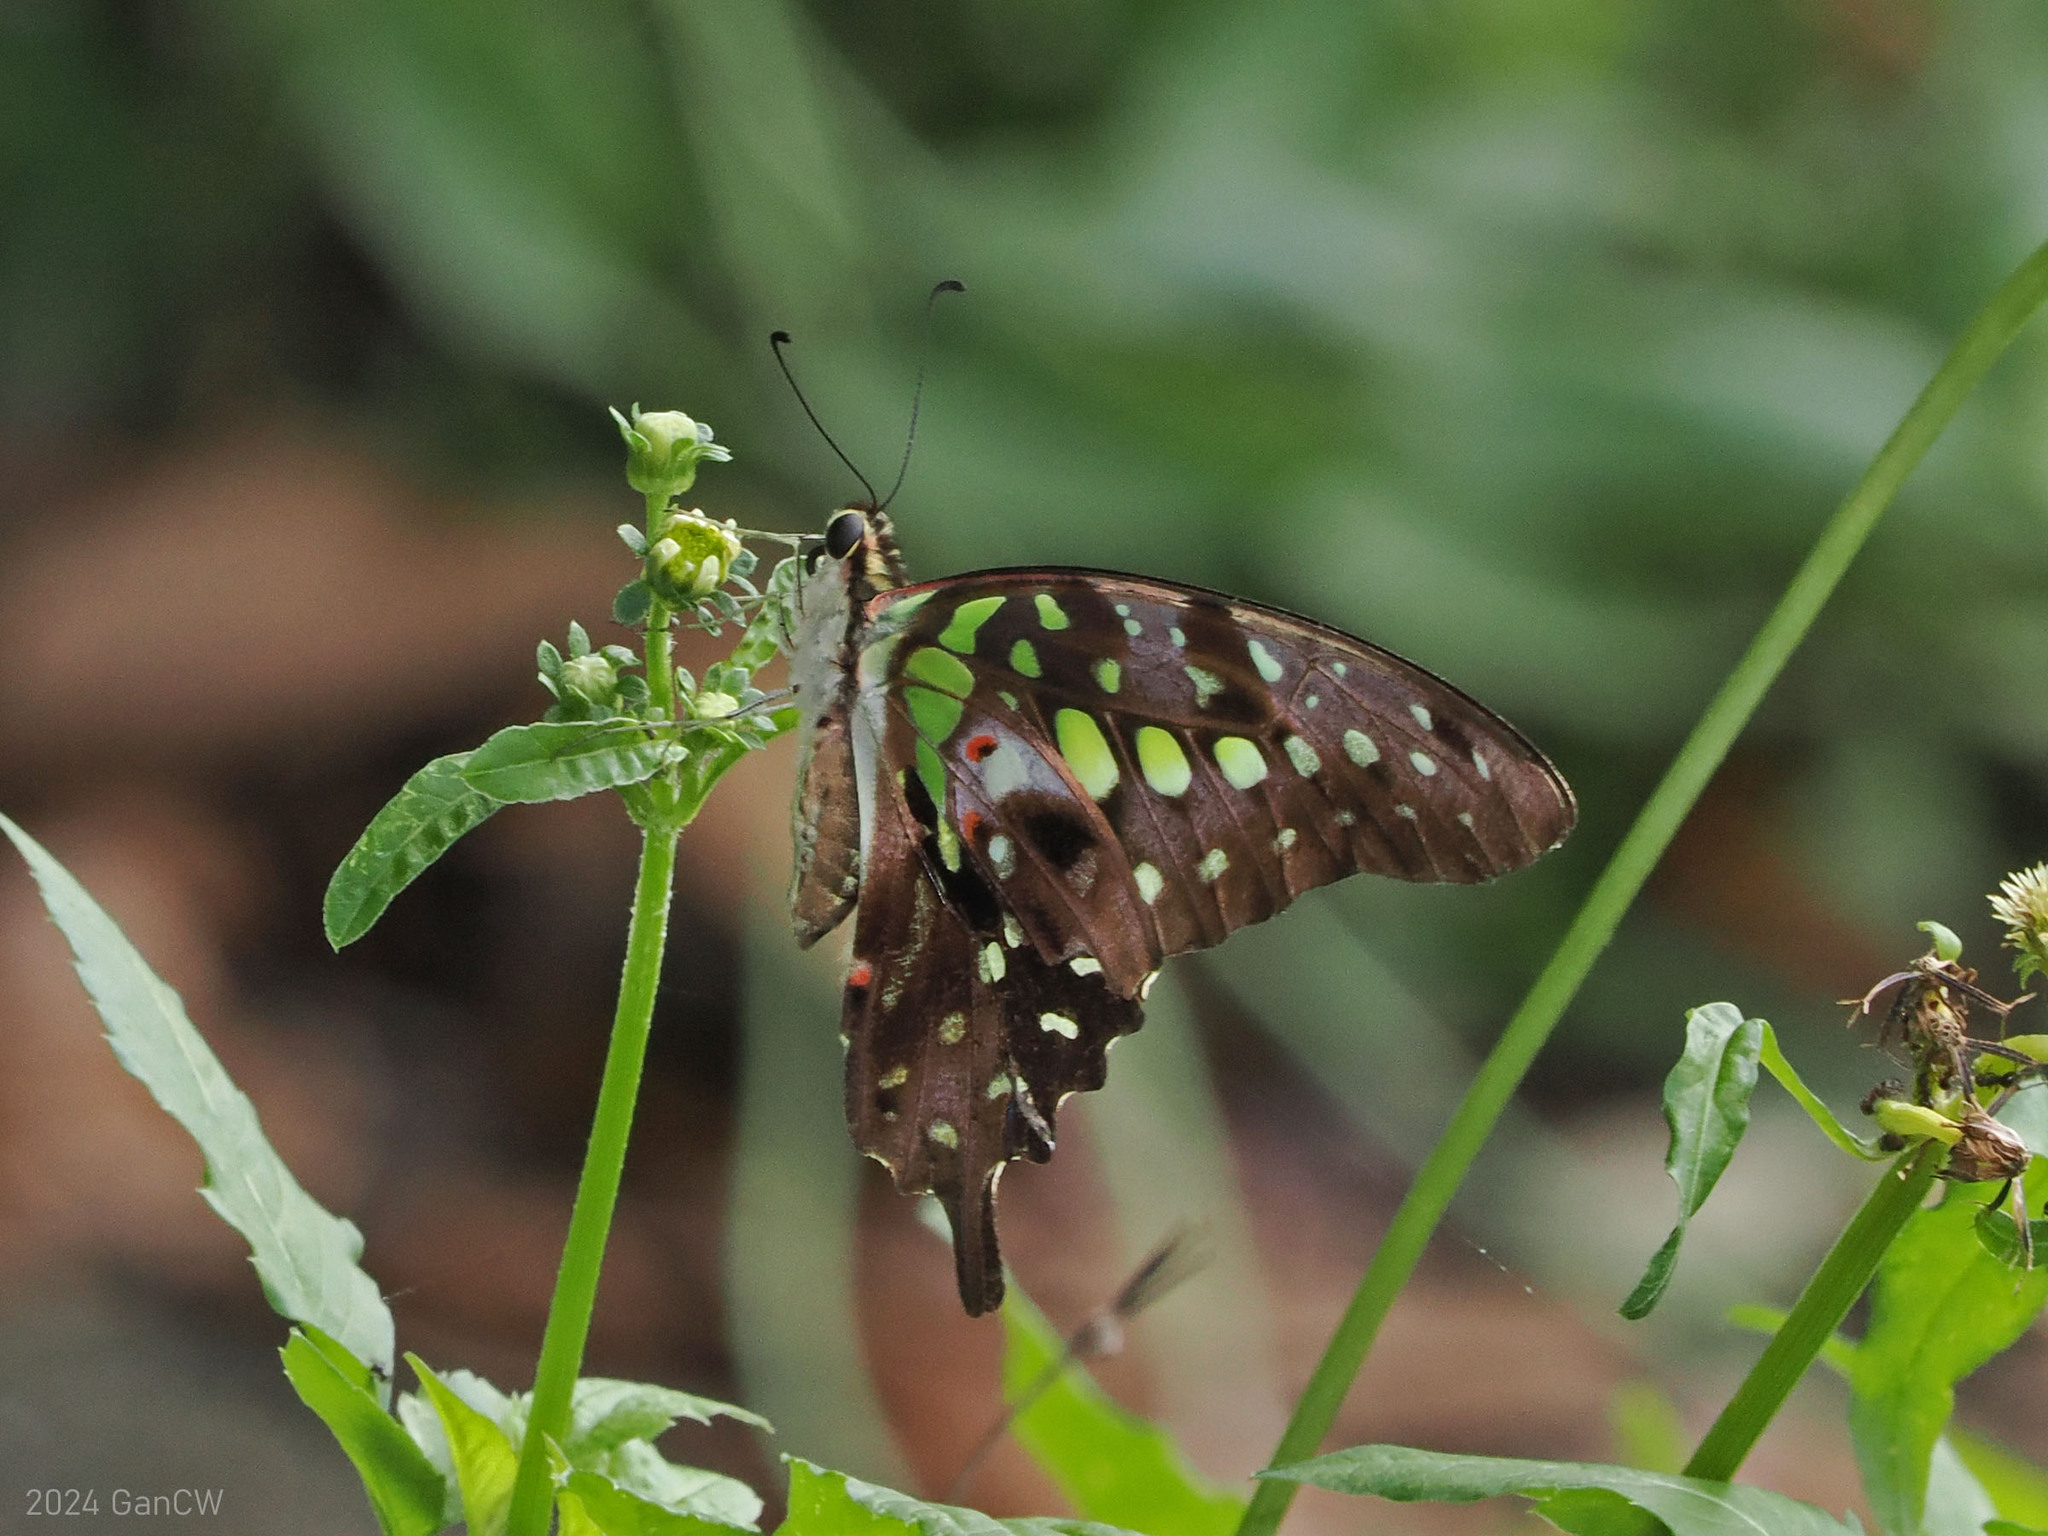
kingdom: Animalia
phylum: Arthropoda
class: Insecta
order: Lepidoptera
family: Papilionidae
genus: Graphium
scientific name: Graphium agamemnon
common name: Tailed jay
